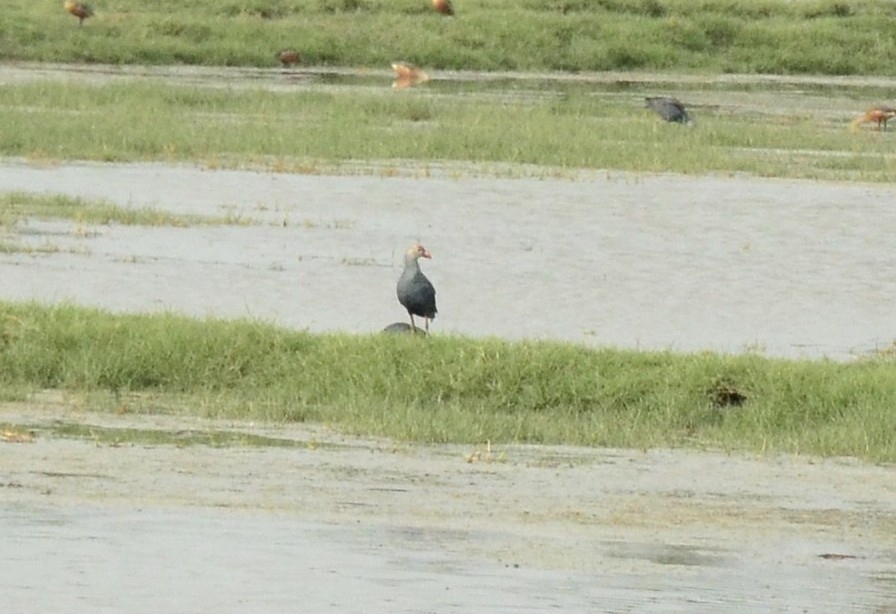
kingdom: Animalia
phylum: Chordata
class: Aves
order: Gruiformes
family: Rallidae
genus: Porphyrio
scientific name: Porphyrio porphyrio
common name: Purple swamphen
